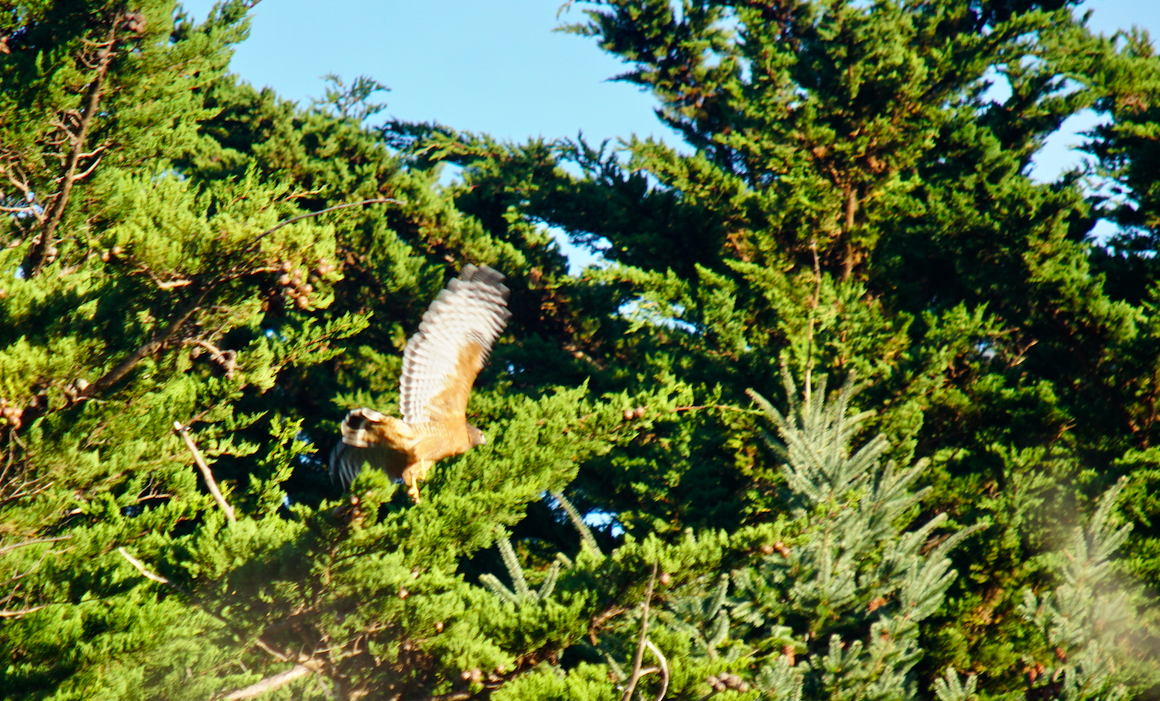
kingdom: Animalia
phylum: Chordata
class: Aves
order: Accipitriformes
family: Accipitridae
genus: Buteo
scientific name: Buteo lineatus
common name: Red-shouldered hawk
